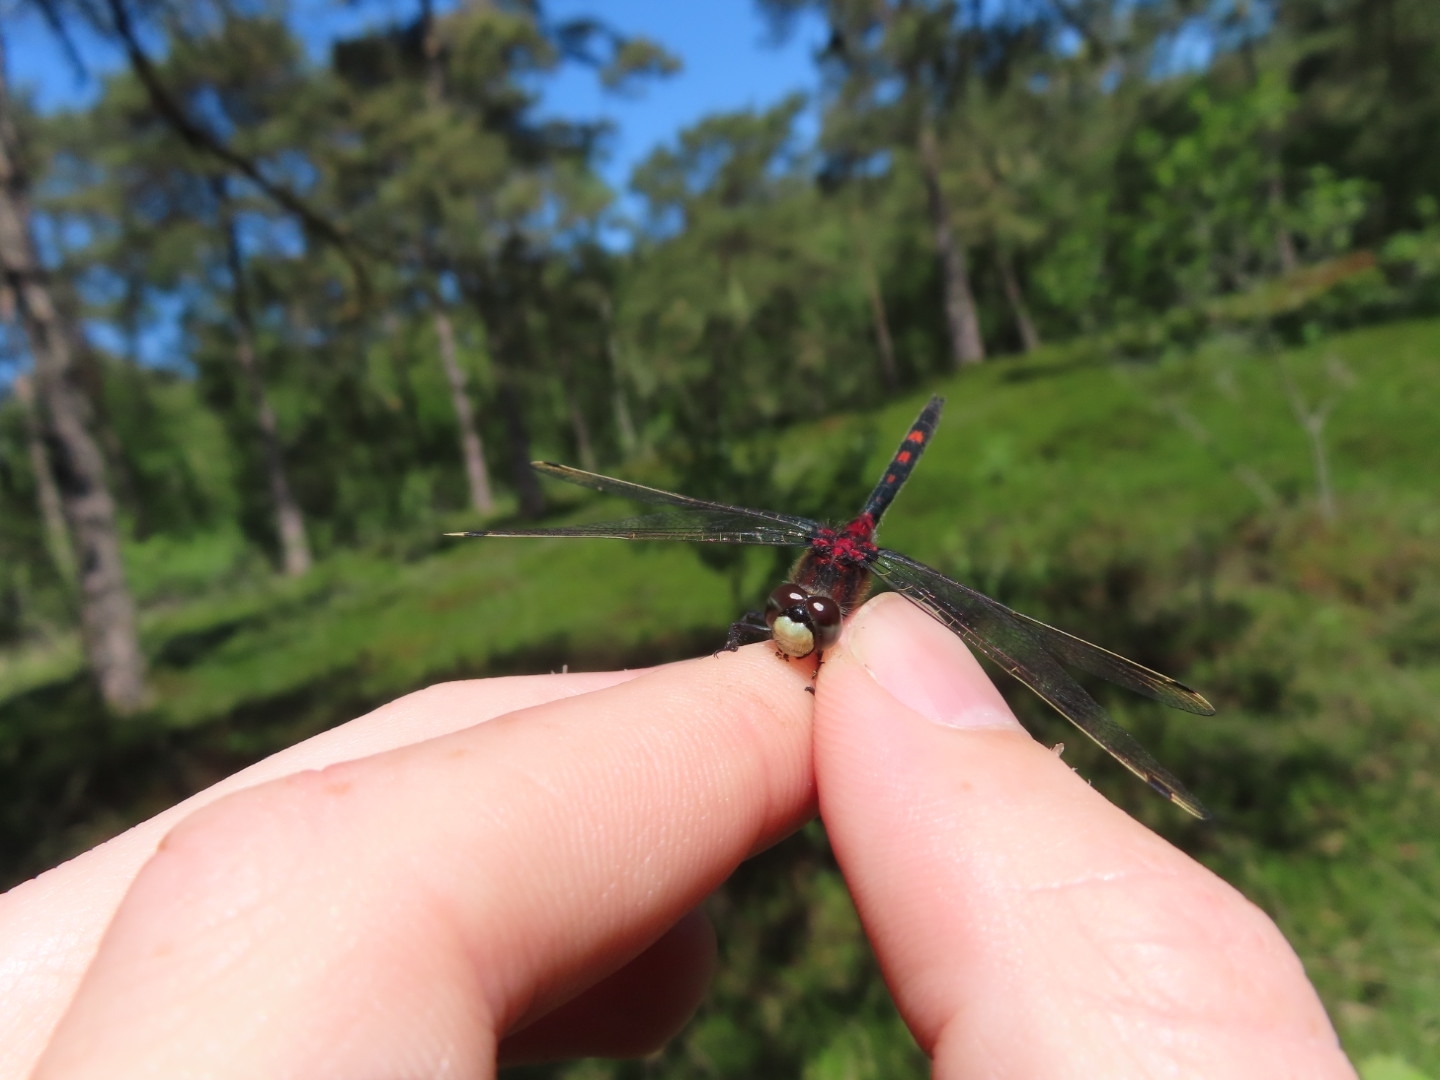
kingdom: Animalia
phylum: Arthropoda
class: Insecta
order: Odonata
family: Libellulidae
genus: Leucorrhinia
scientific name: Leucorrhinia dubia
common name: White-faced darter
